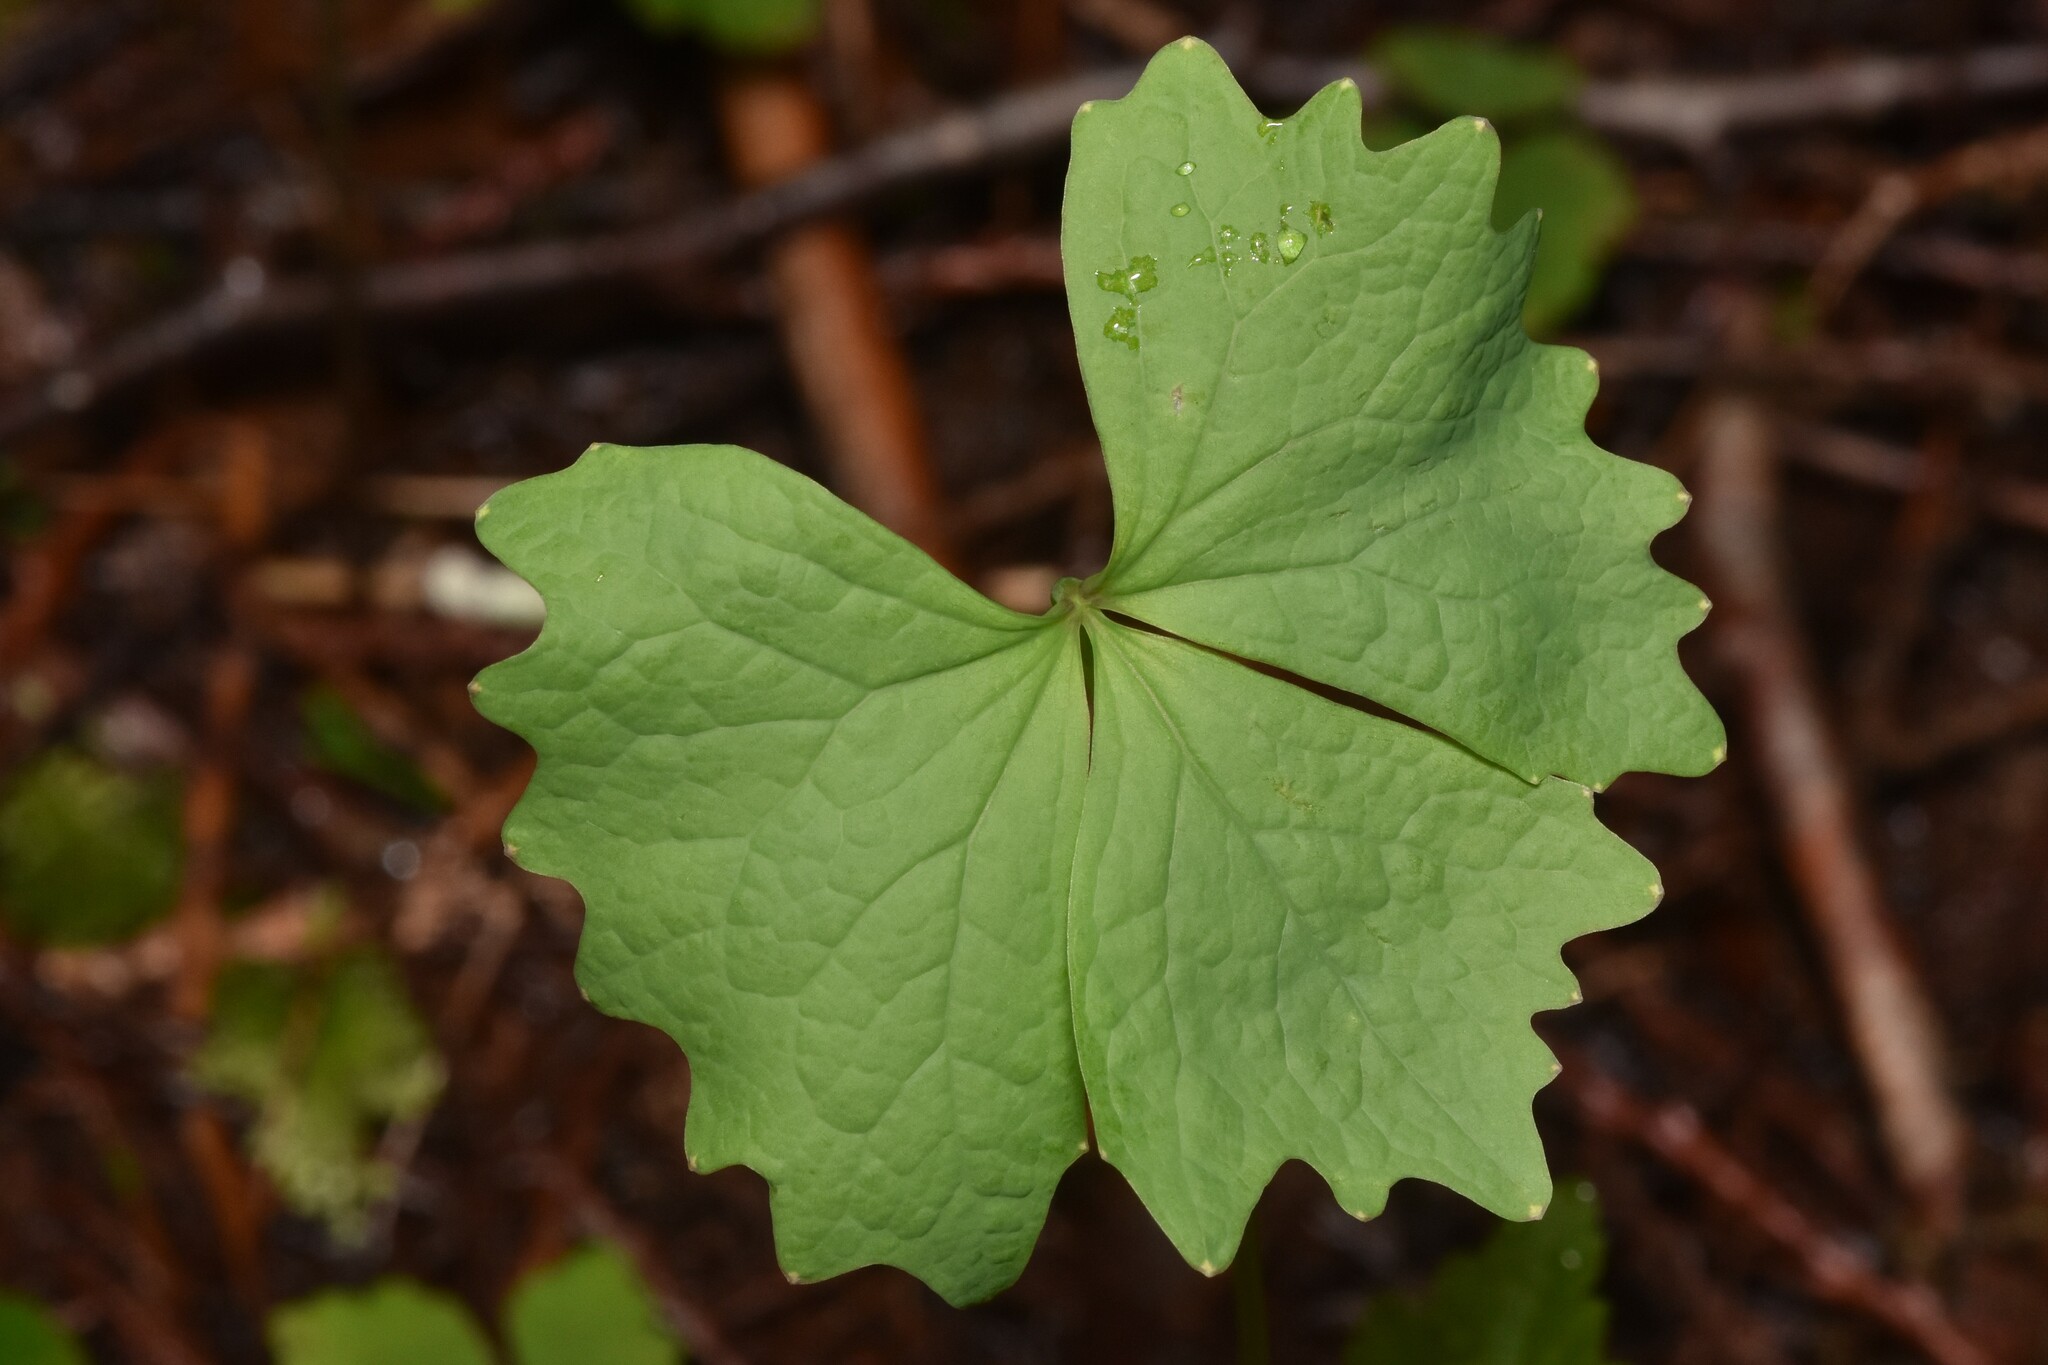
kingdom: Plantae
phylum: Tracheophyta
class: Magnoliopsida
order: Ranunculales
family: Berberidaceae
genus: Achlys
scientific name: Achlys triphylla
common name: Vanilla-leaf
